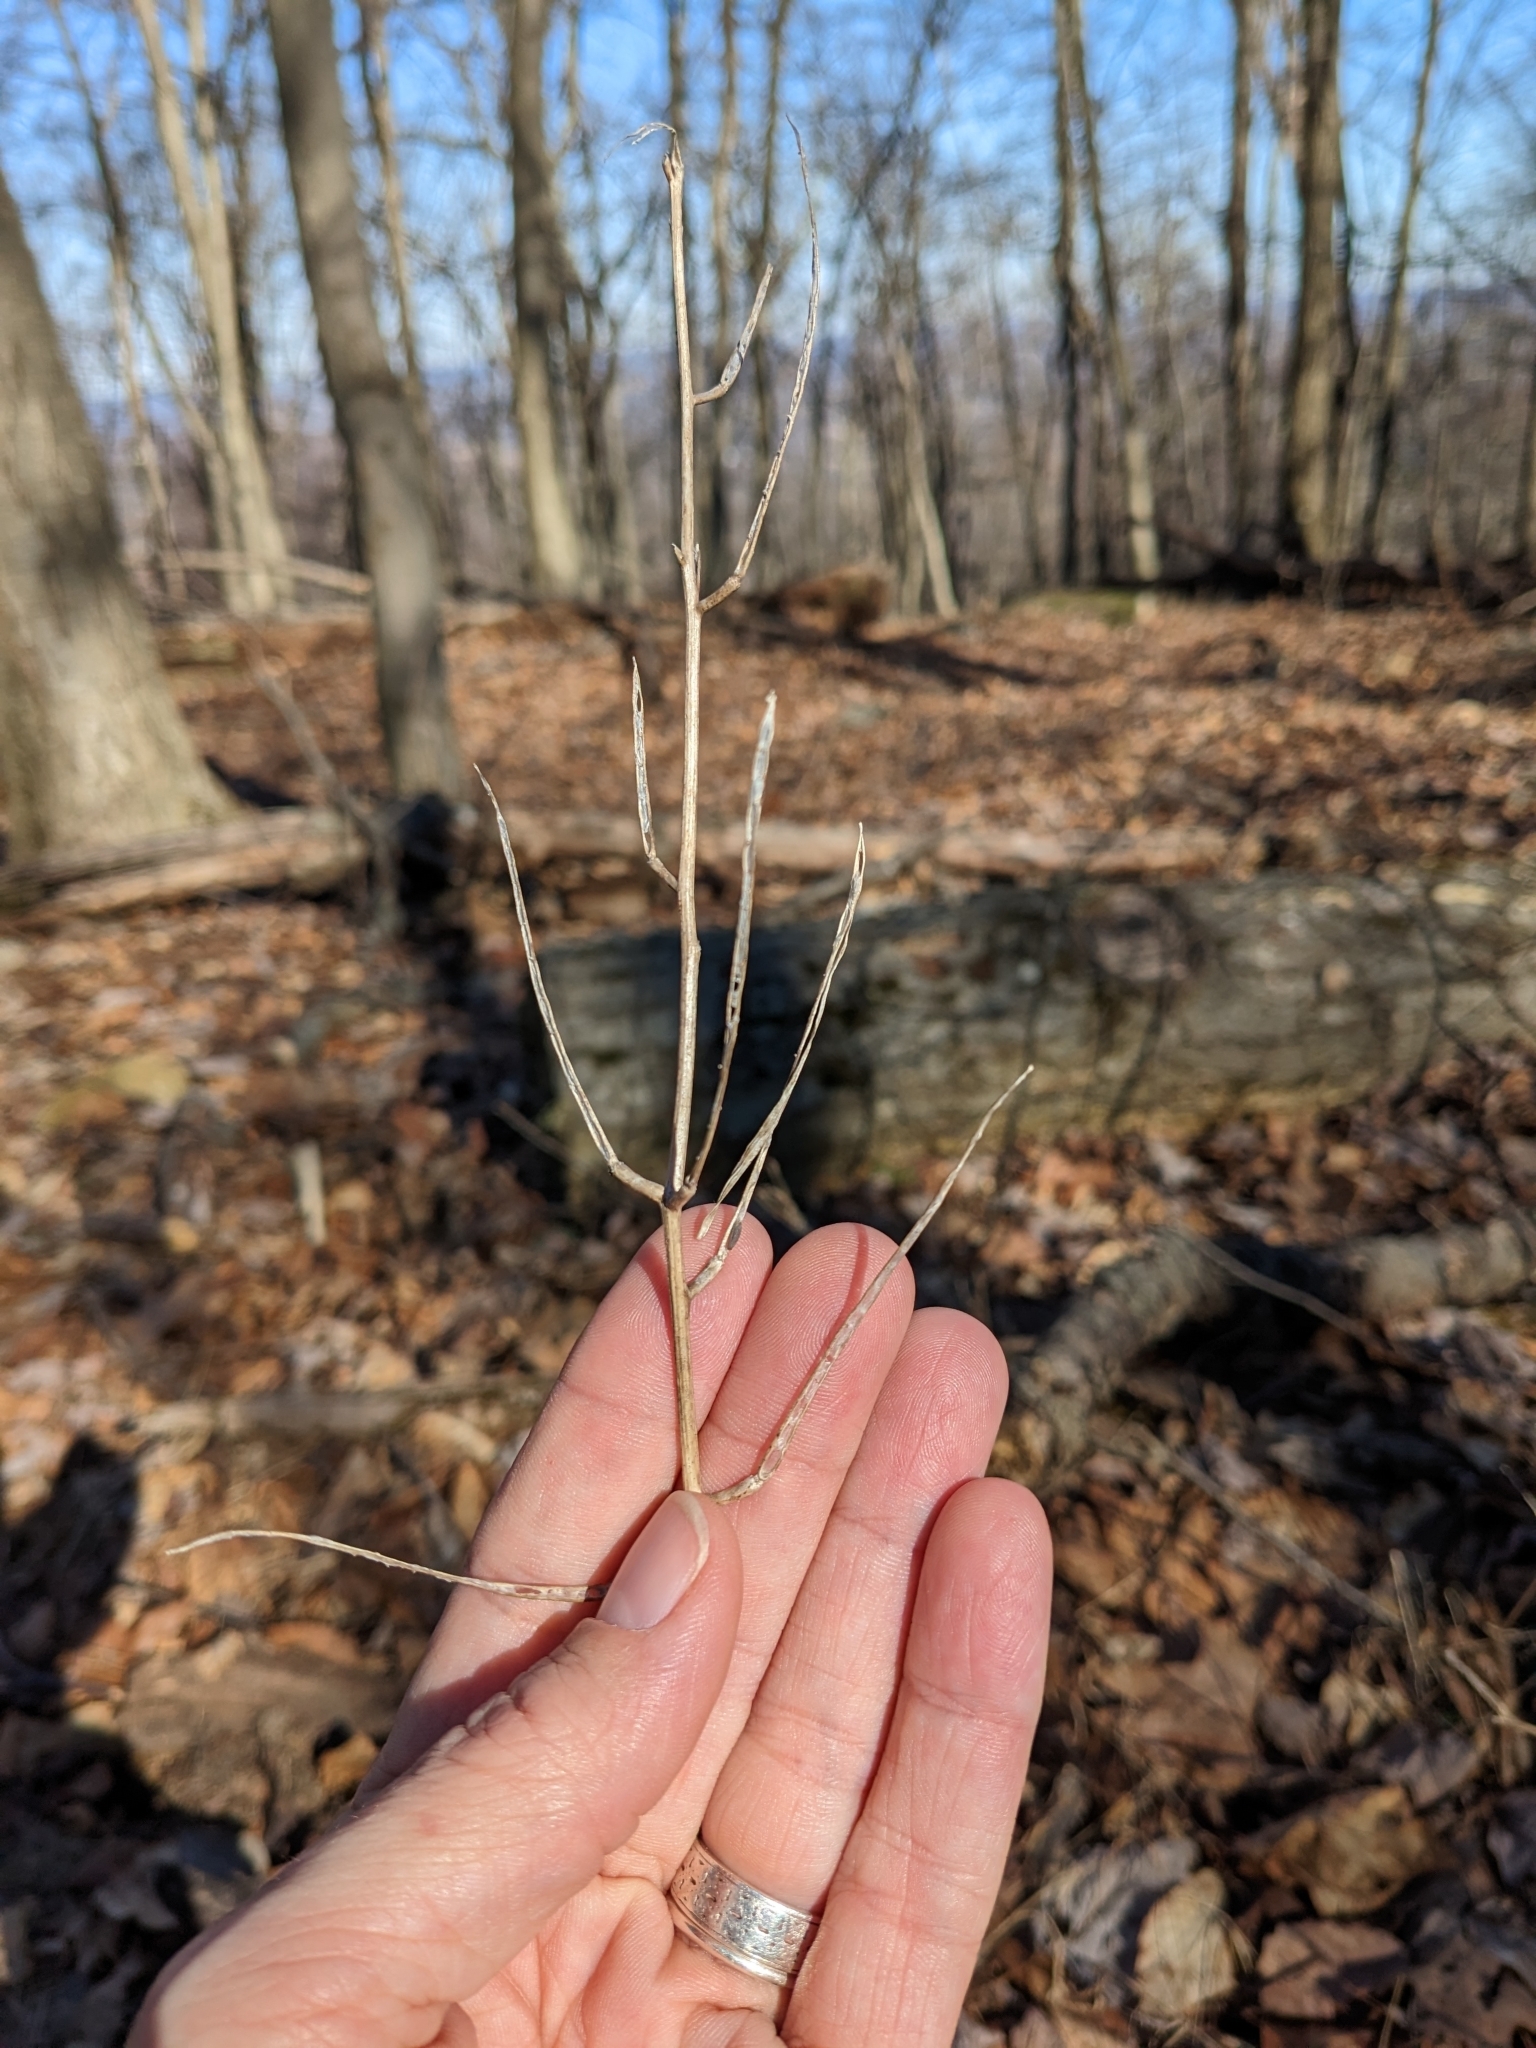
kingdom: Plantae
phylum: Tracheophyta
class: Magnoliopsida
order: Brassicales
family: Brassicaceae
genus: Alliaria
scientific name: Alliaria petiolata
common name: Garlic mustard
